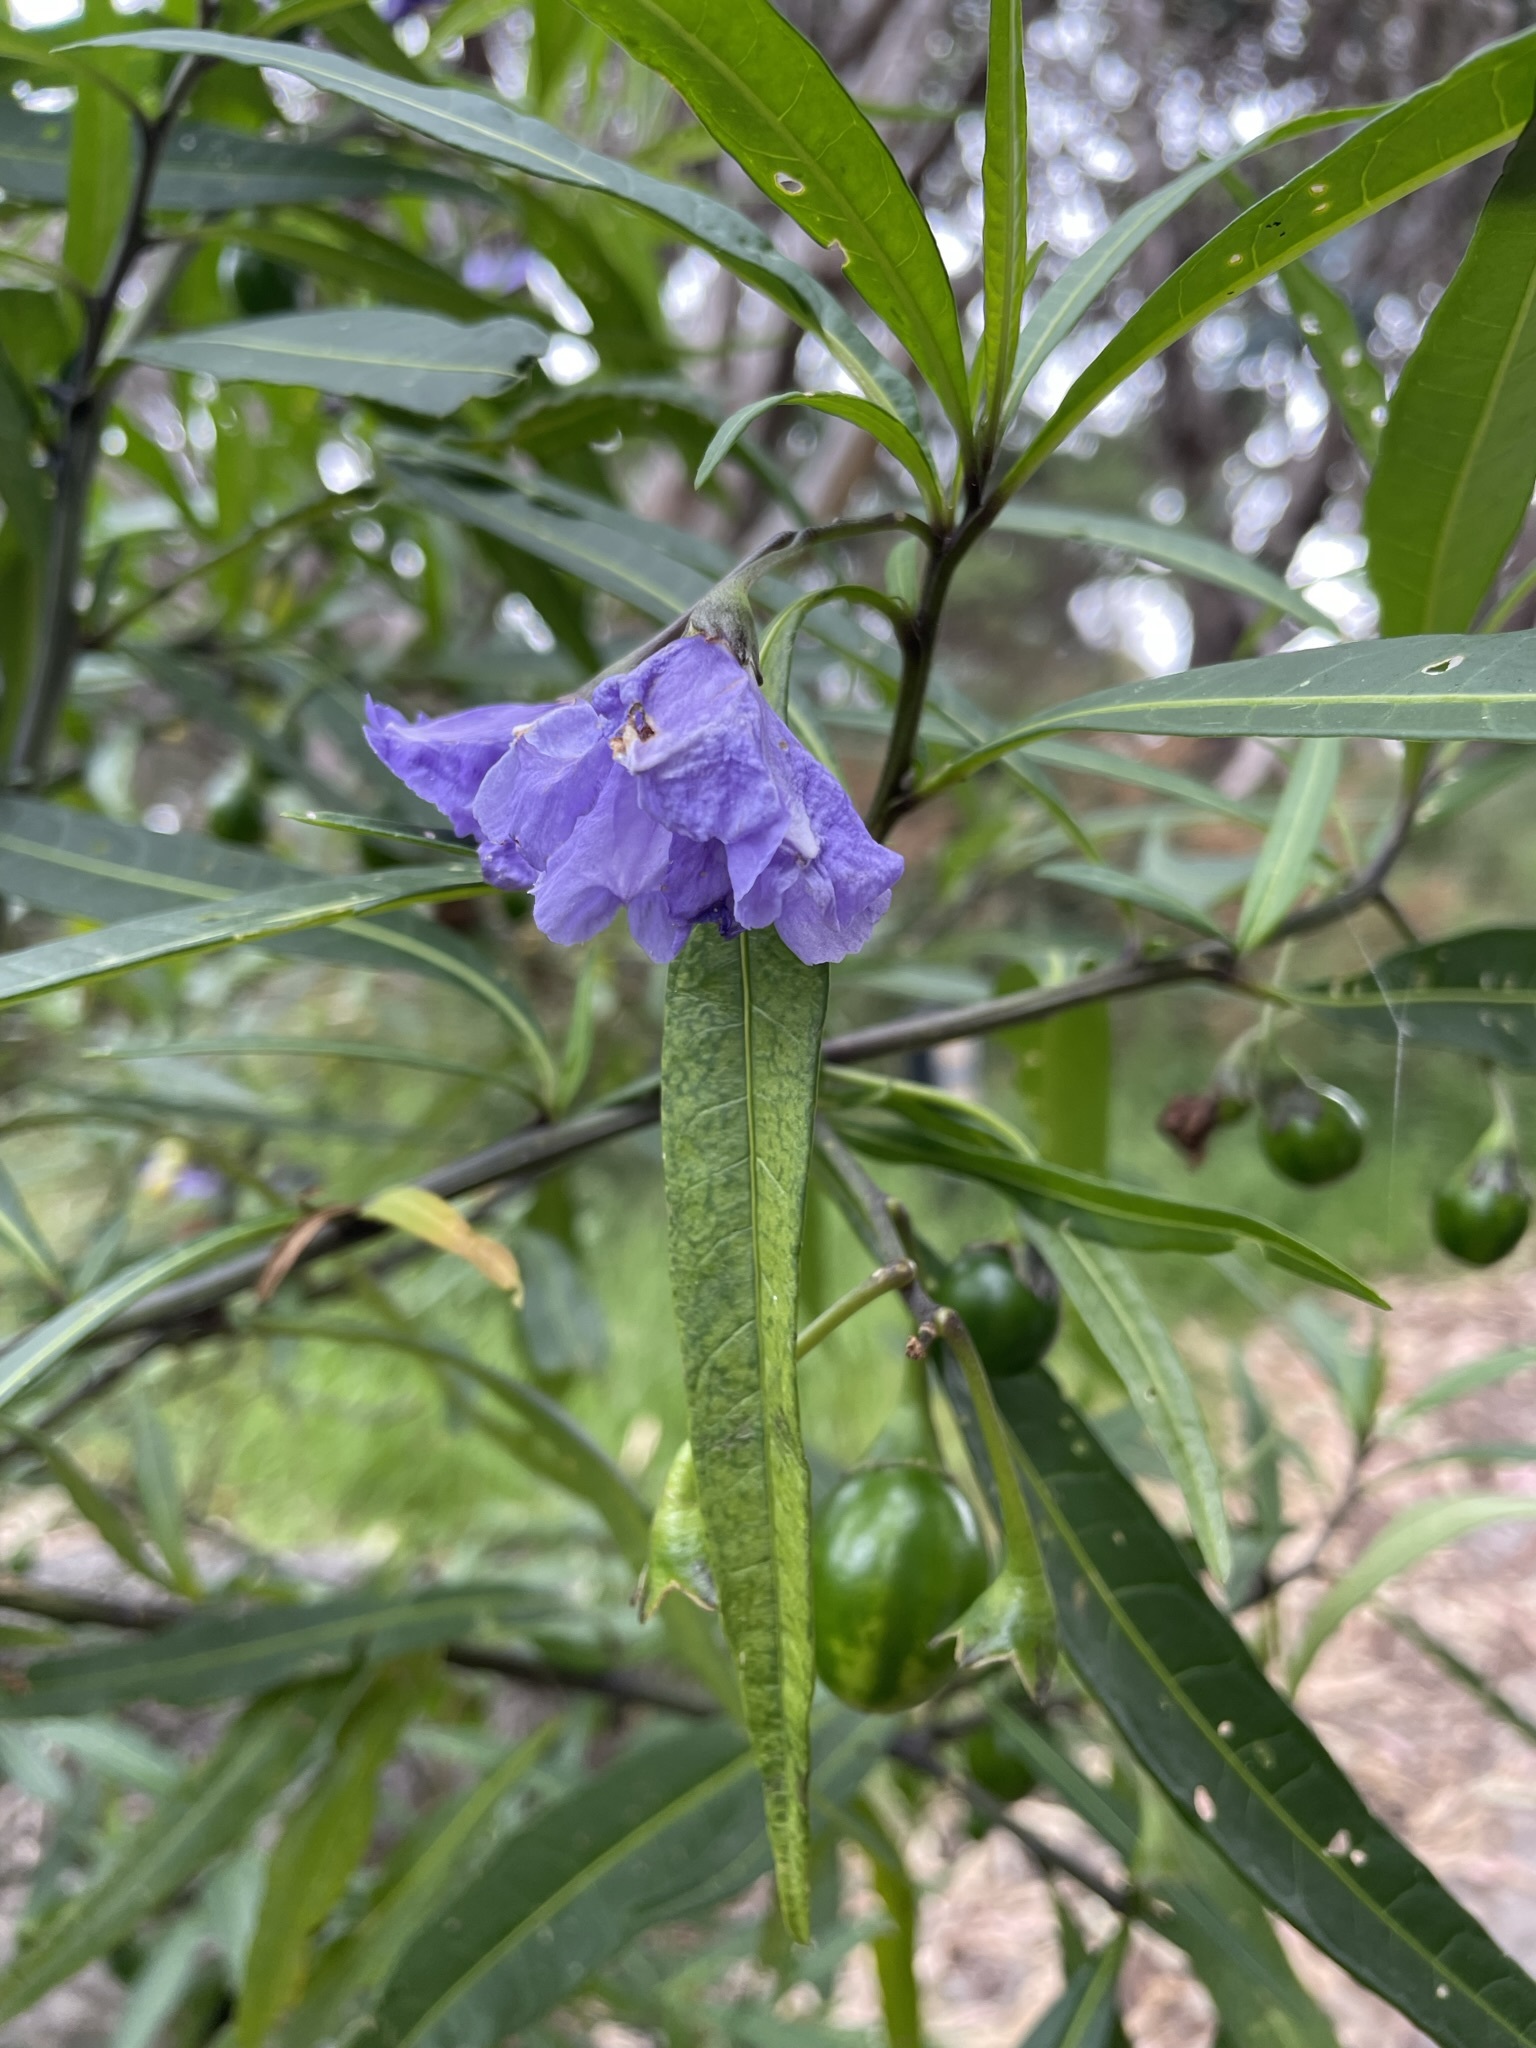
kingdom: Plantae
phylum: Tracheophyta
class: Magnoliopsida
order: Solanales
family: Solanaceae
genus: Solanum
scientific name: Solanum laciniatum
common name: Kangaroo-apple
